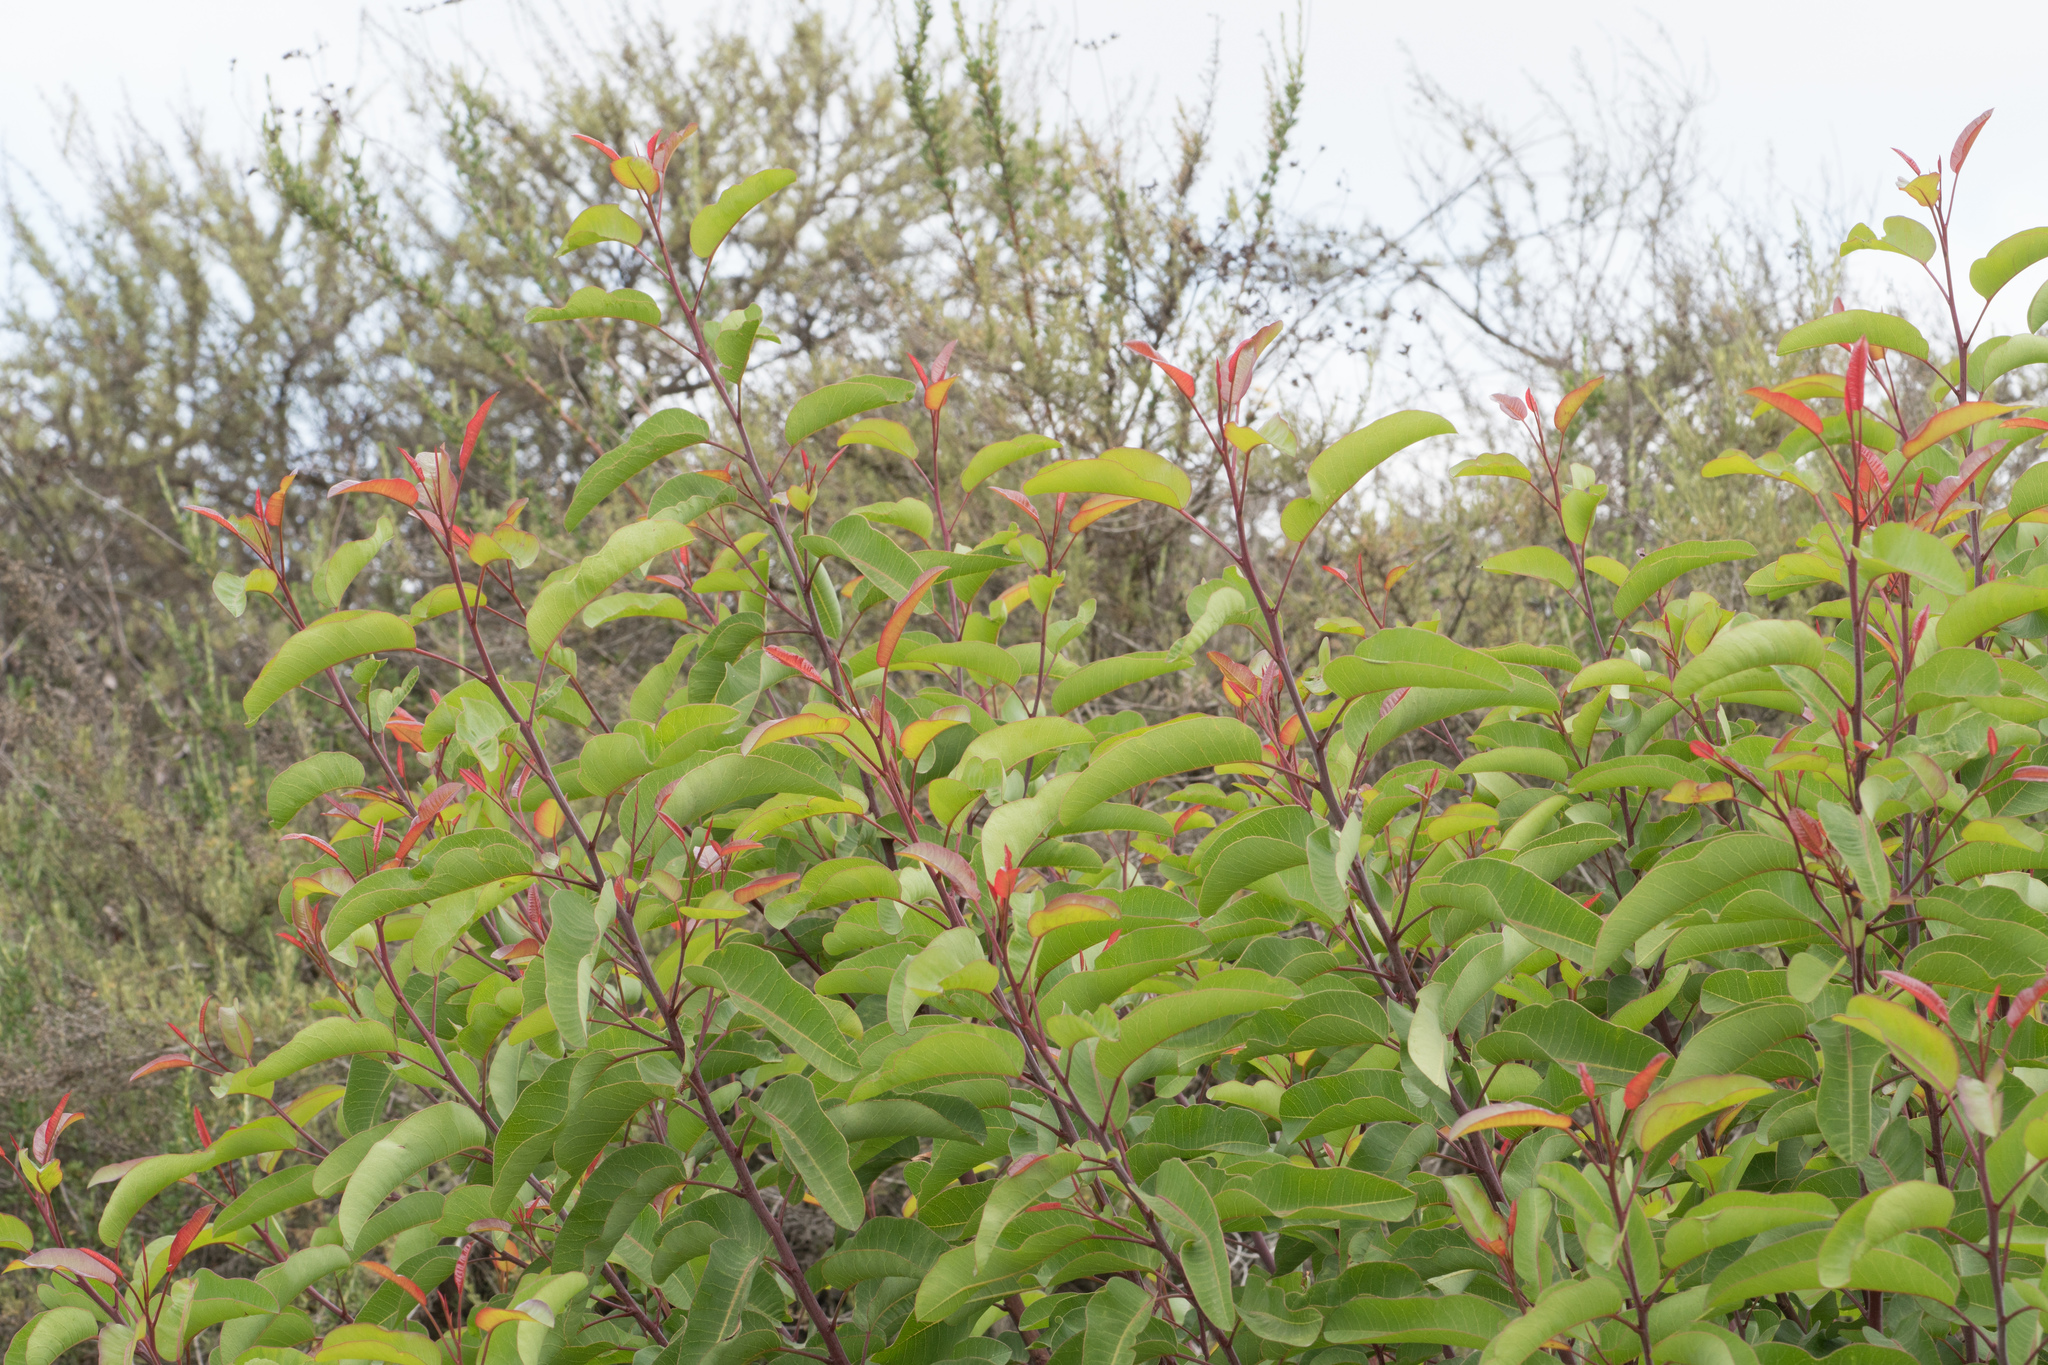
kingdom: Plantae
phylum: Tracheophyta
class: Magnoliopsida
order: Sapindales
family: Anacardiaceae
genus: Malosma
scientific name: Malosma laurina
